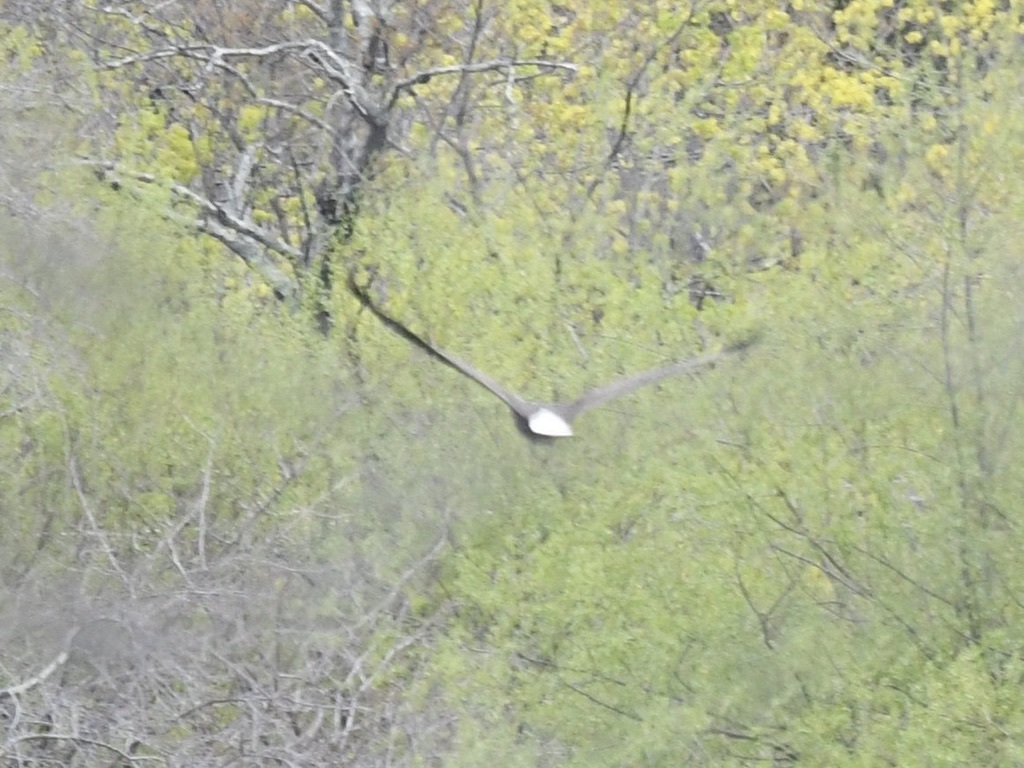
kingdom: Animalia
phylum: Chordata
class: Aves
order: Accipitriformes
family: Accipitridae
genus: Haliaeetus
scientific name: Haliaeetus leucocephalus
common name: Bald eagle
